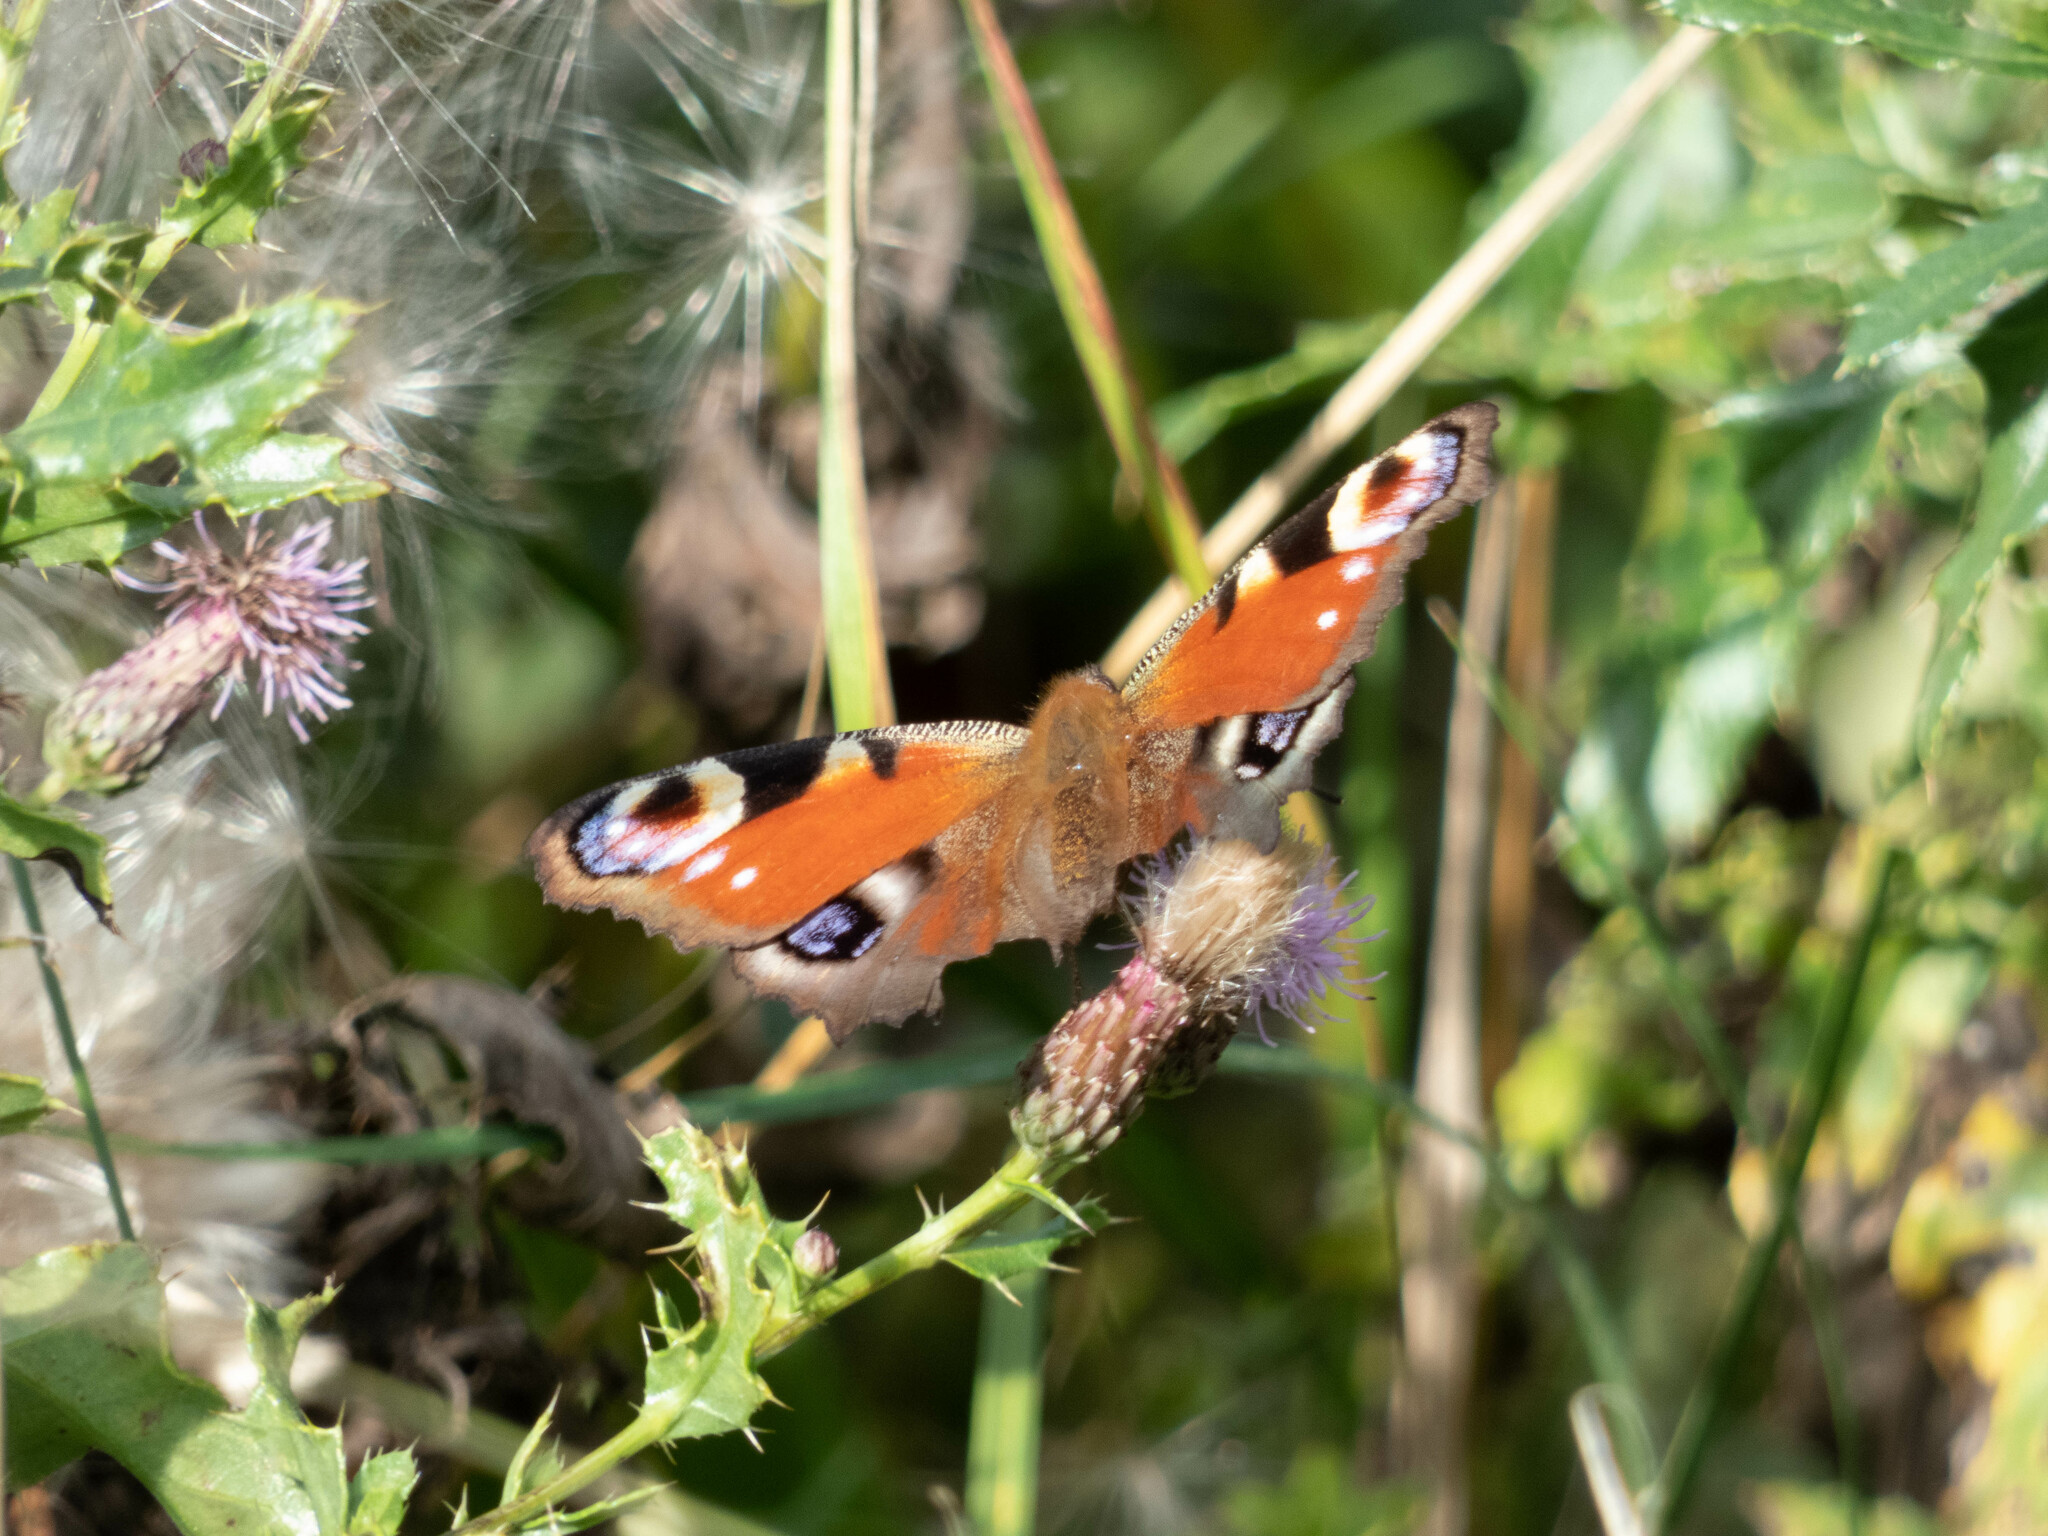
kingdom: Animalia
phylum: Arthropoda
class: Insecta
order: Lepidoptera
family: Nymphalidae
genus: Aglais
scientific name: Aglais io
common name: Peacock
